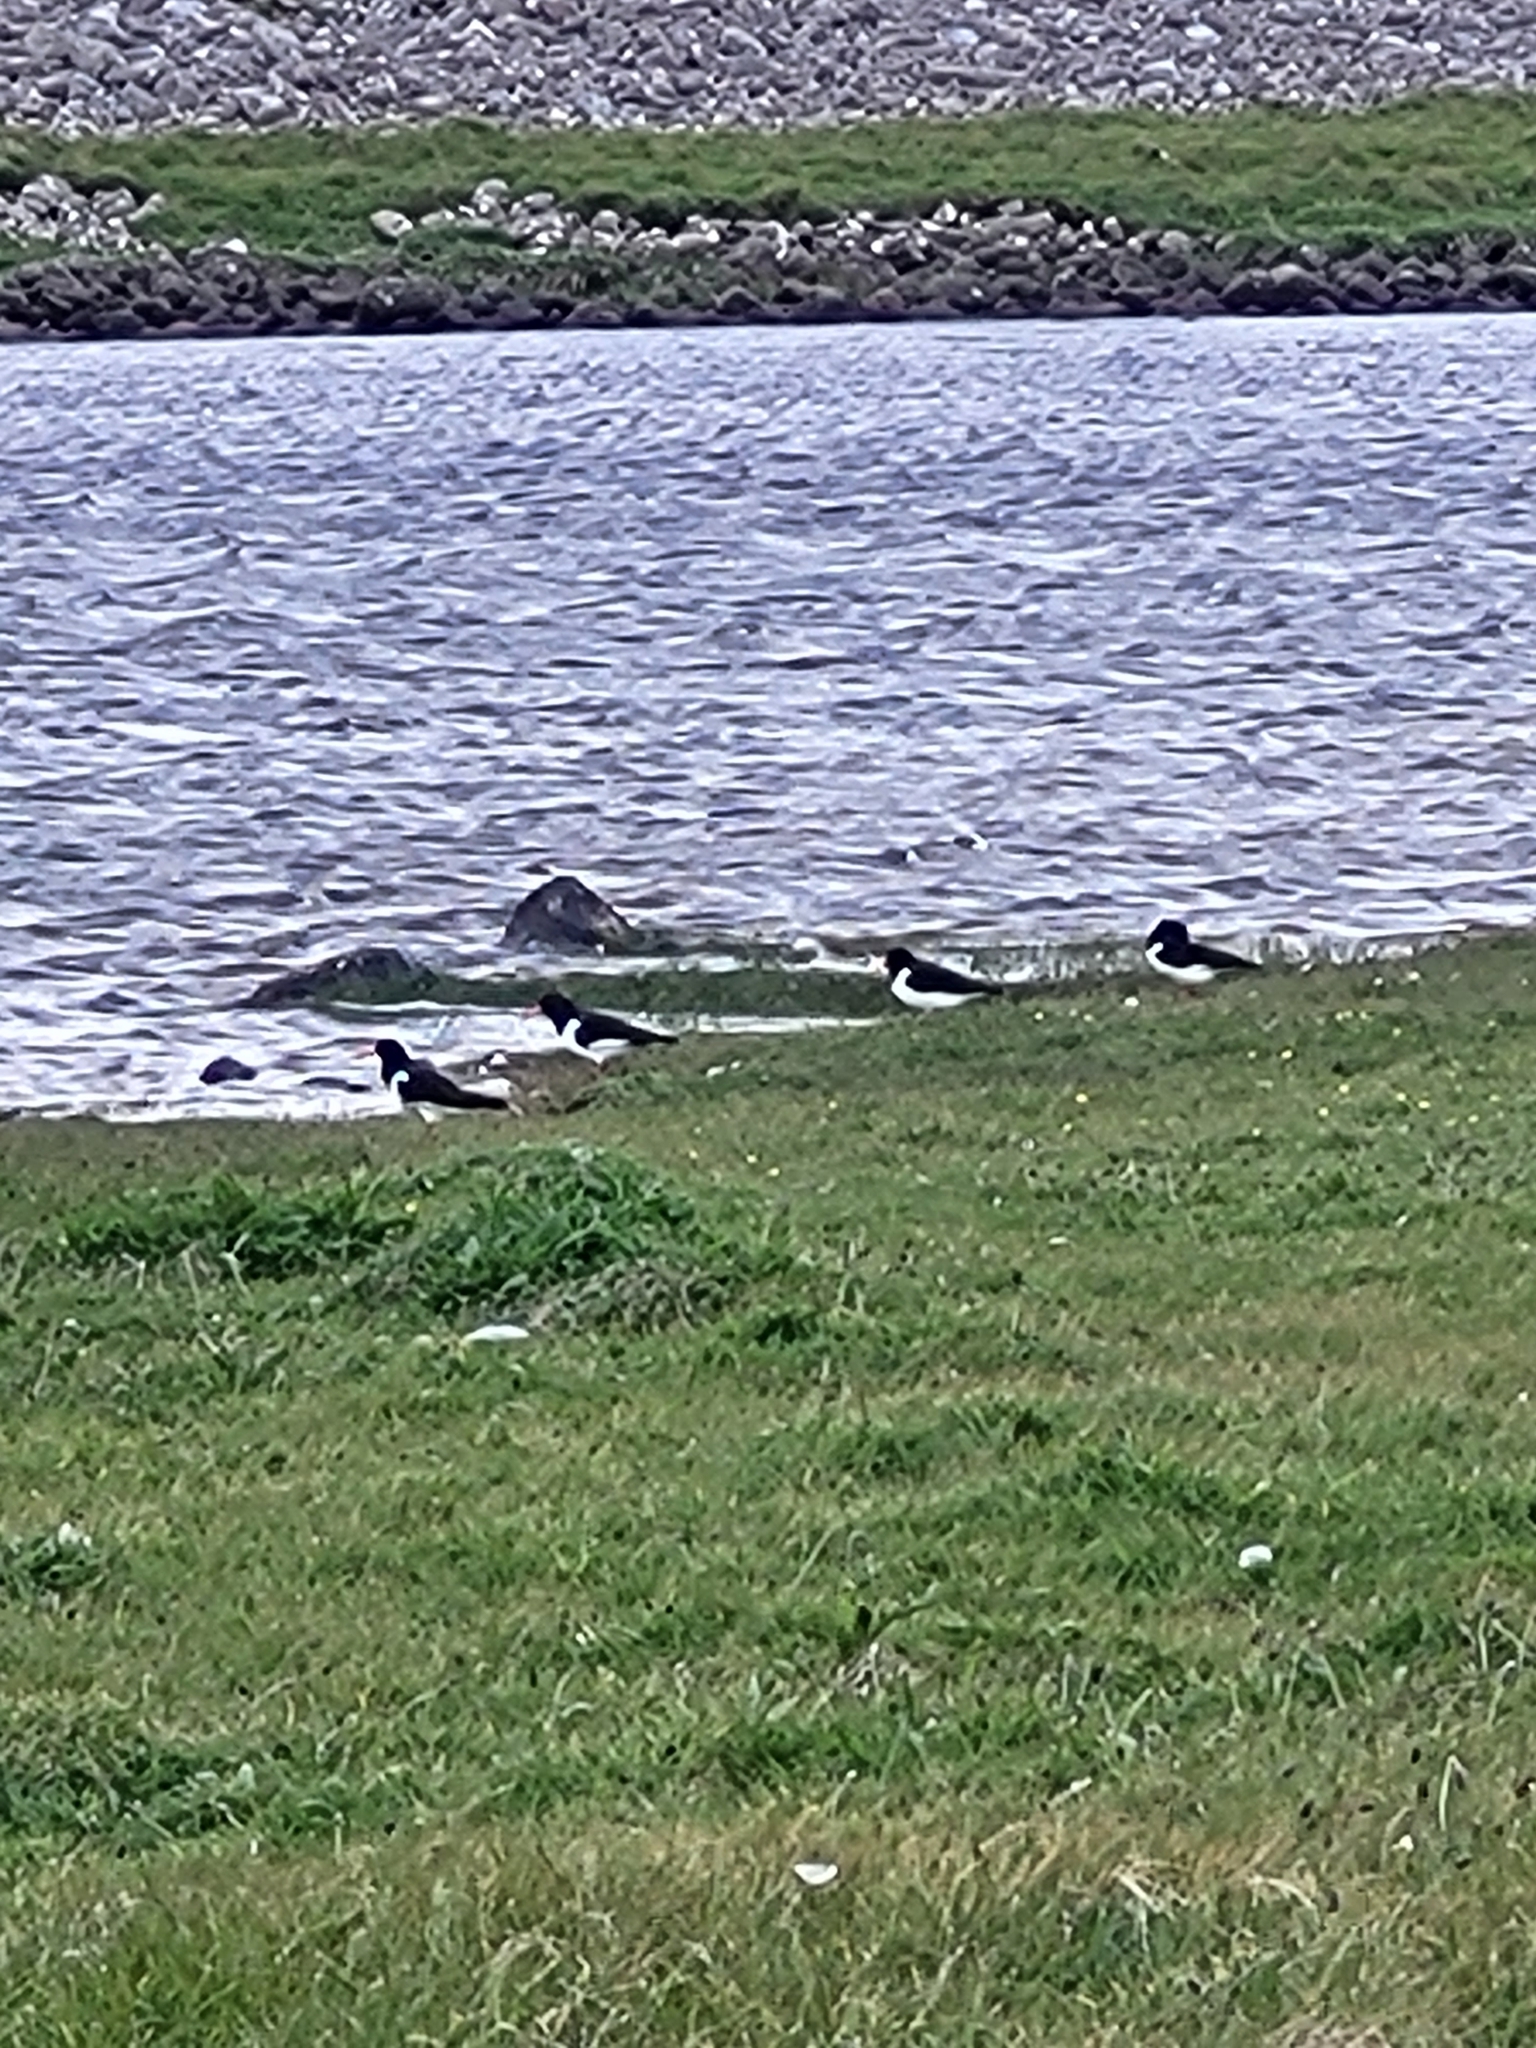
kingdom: Animalia
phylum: Chordata
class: Aves
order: Charadriiformes
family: Haematopodidae
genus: Haematopus
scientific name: Haematopus ostralegus
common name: Eurasian oystercatcher
